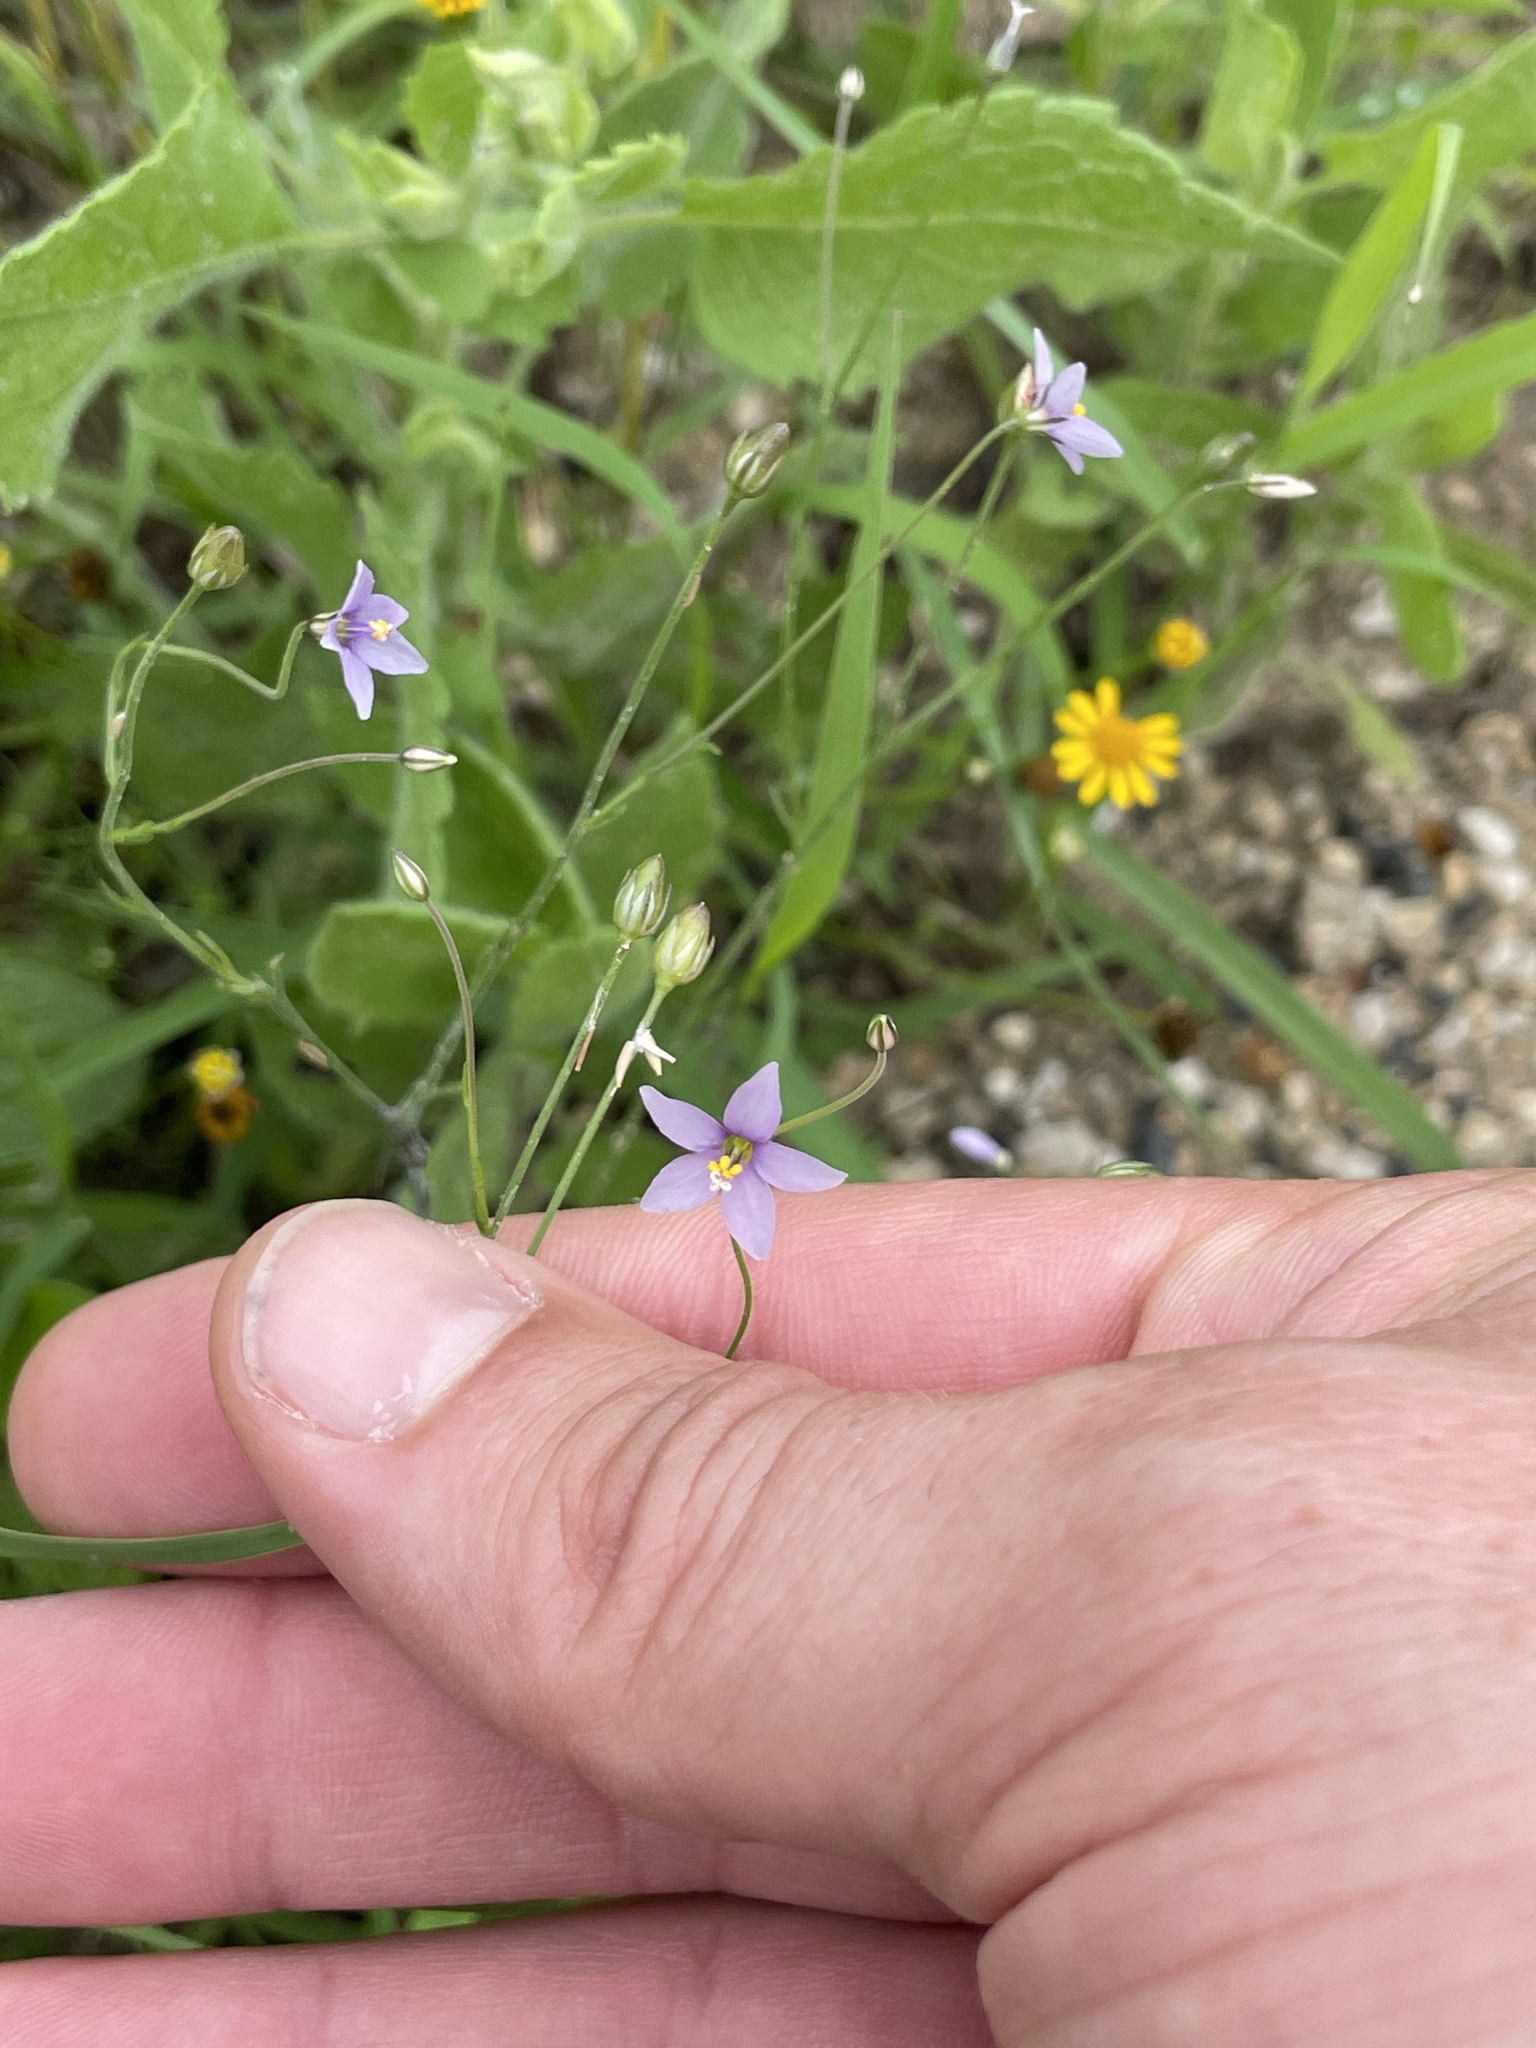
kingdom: Plantae
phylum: Tracheophyta
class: Magnoliopsida
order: Ericales
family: Polemoniaceae
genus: Giliastrum
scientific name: Giliastrum incisum
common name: Splitleaf gilia
